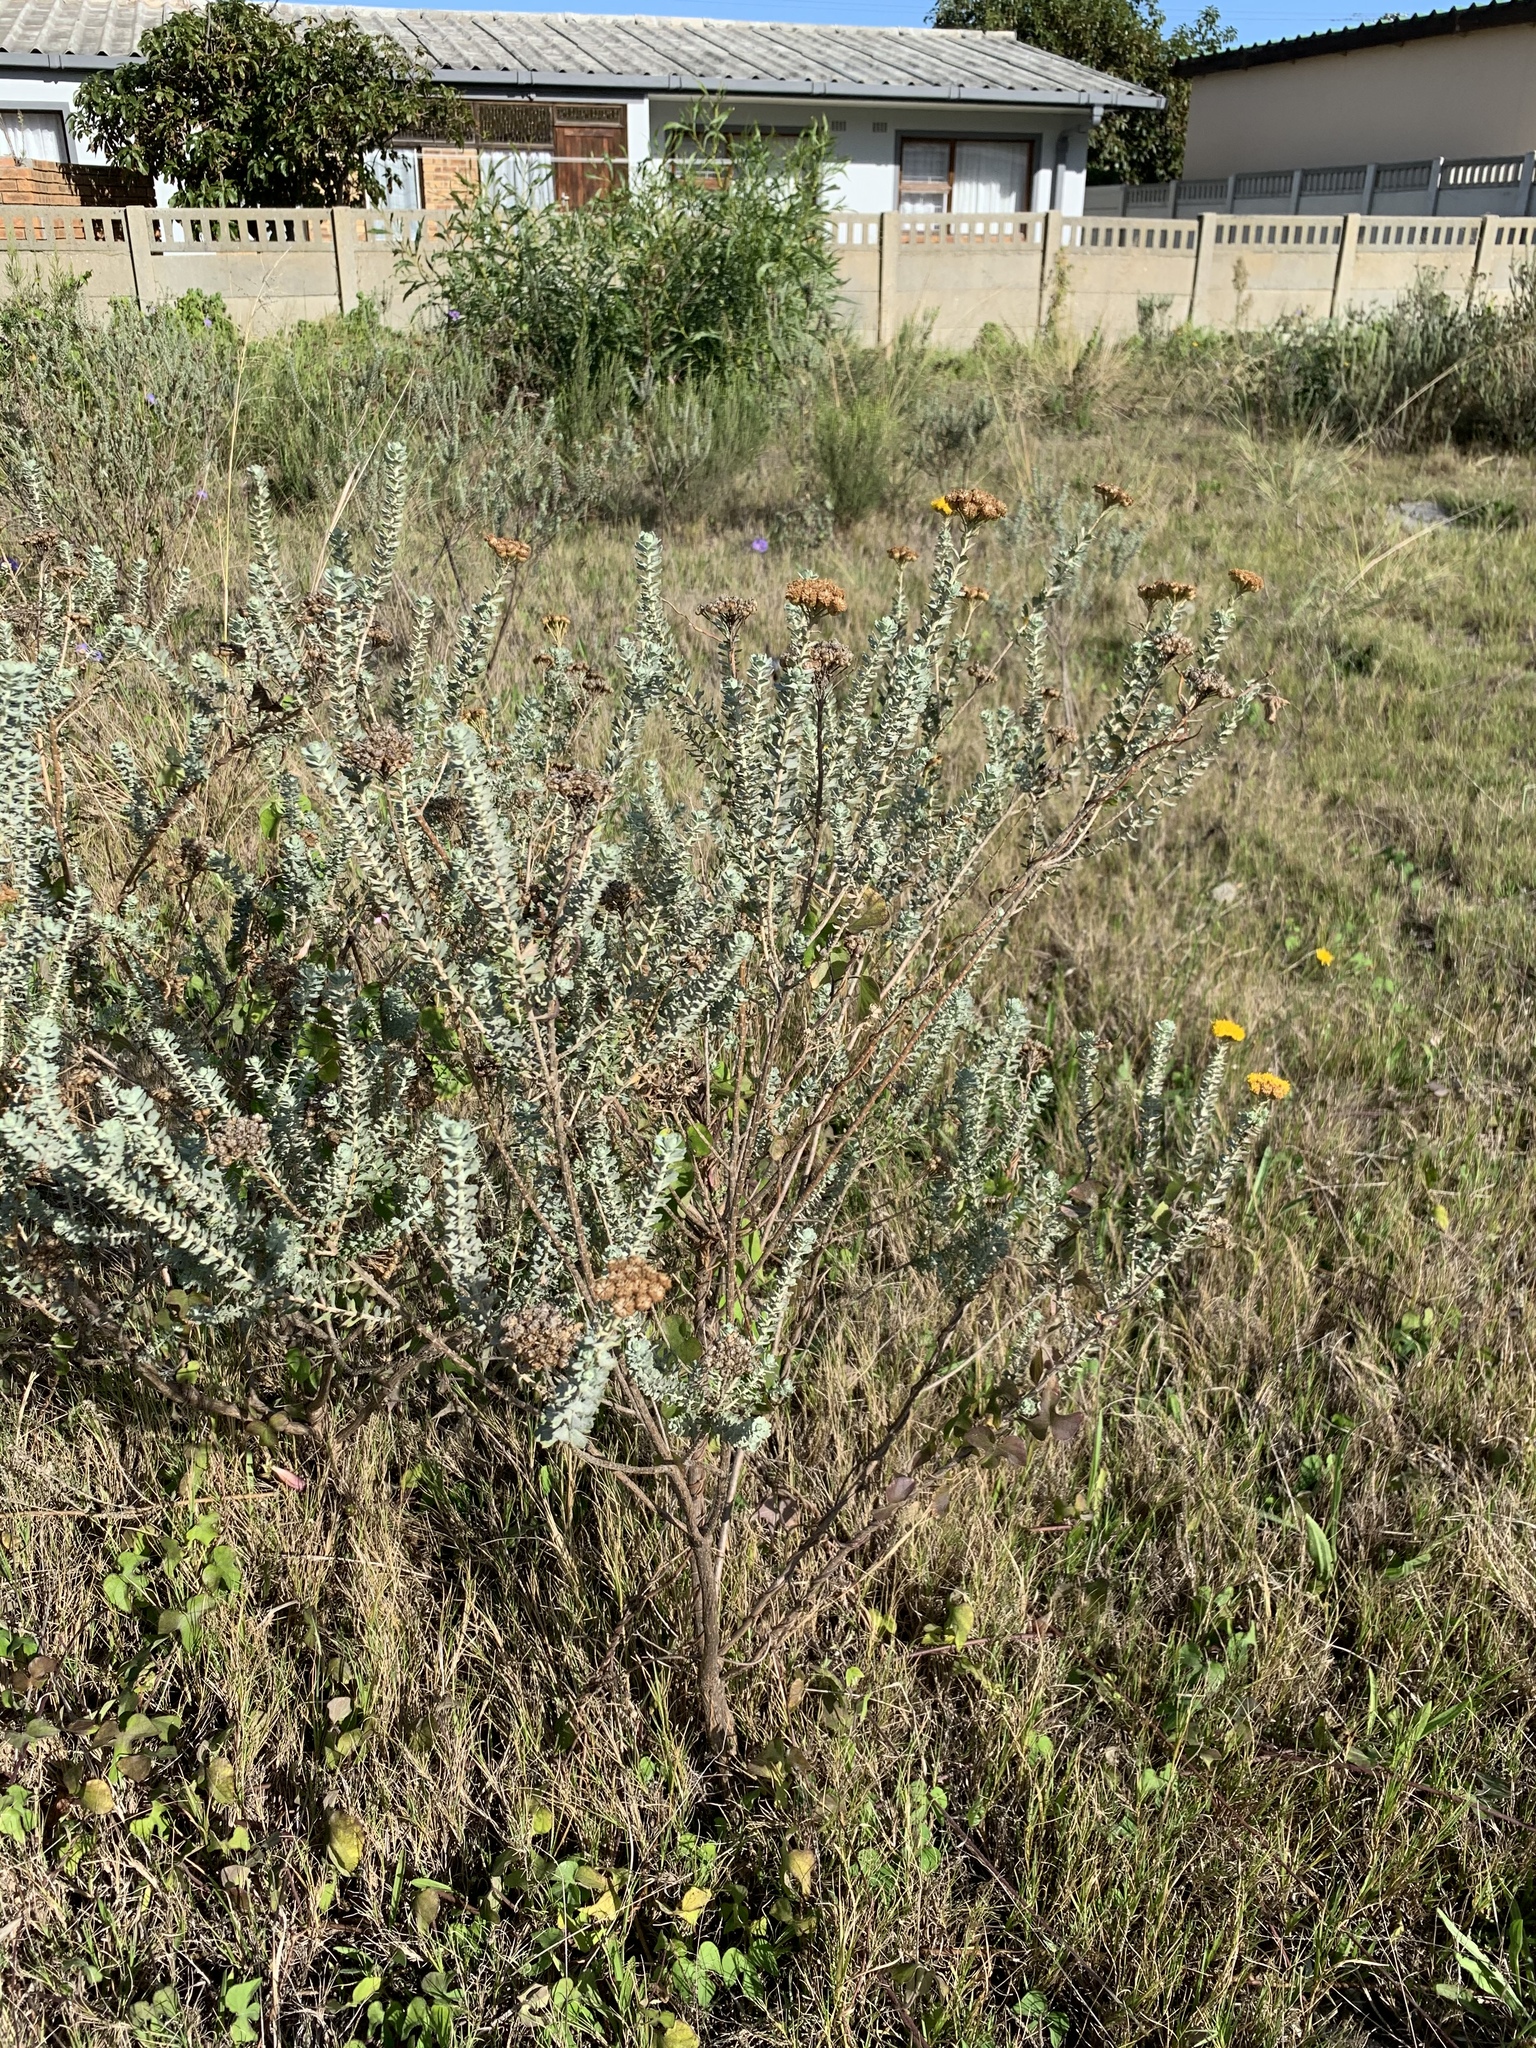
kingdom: Plantae
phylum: Tracheophyta
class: Magnoliopsida
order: Asterales
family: Asteraceae
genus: Athanasia
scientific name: Athanasia trifurcata
